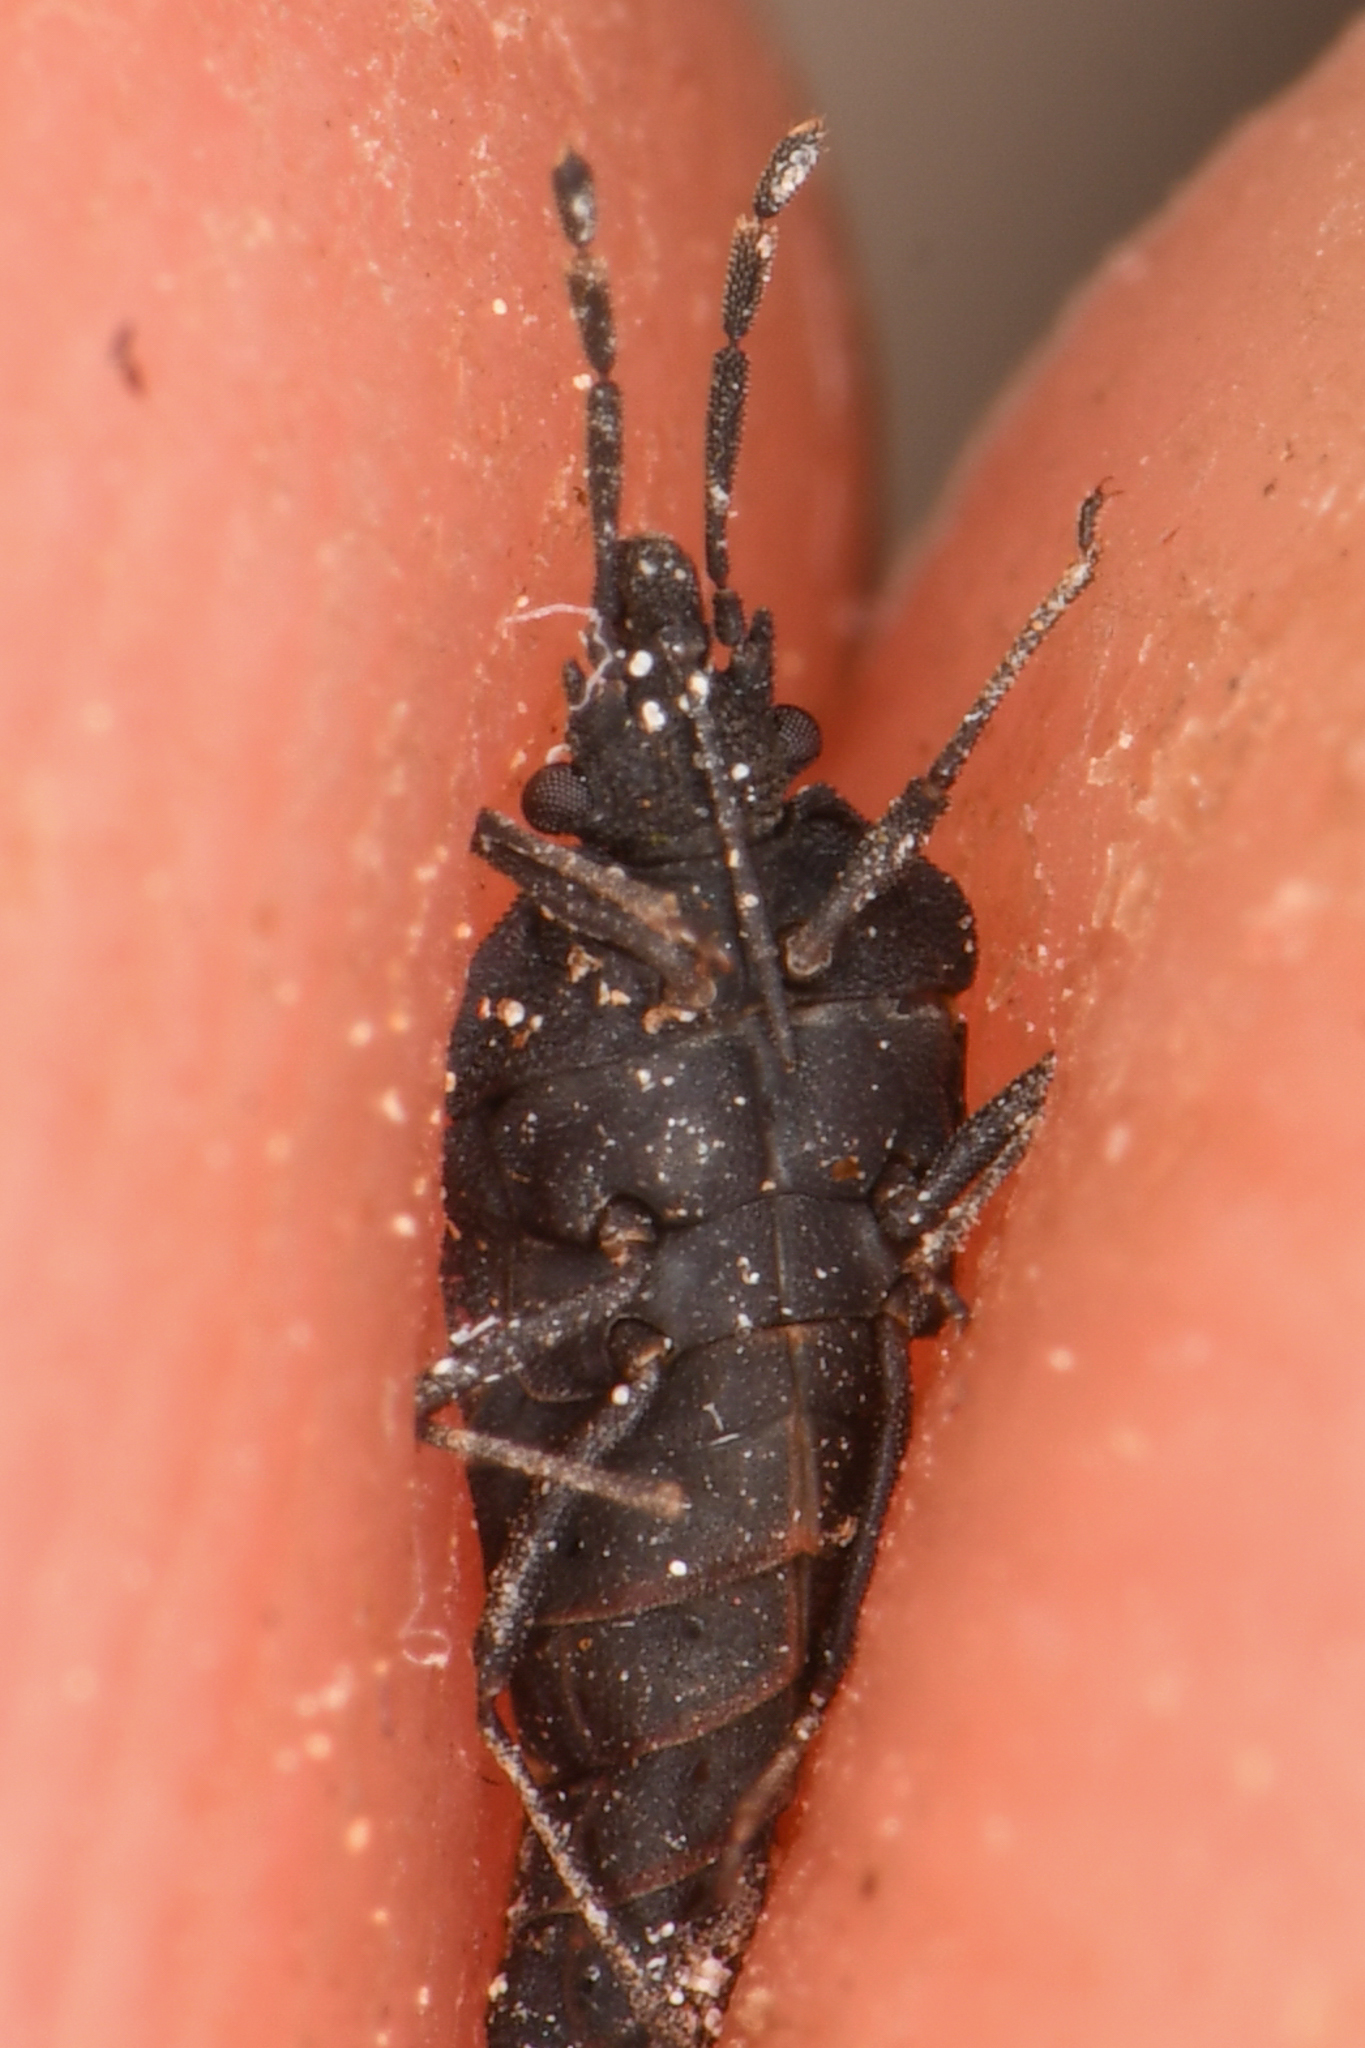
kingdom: Animalia
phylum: Arthropoda
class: Insecta
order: Hemiptera
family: Aradidae
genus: Aradus
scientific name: Aradus lugubris
